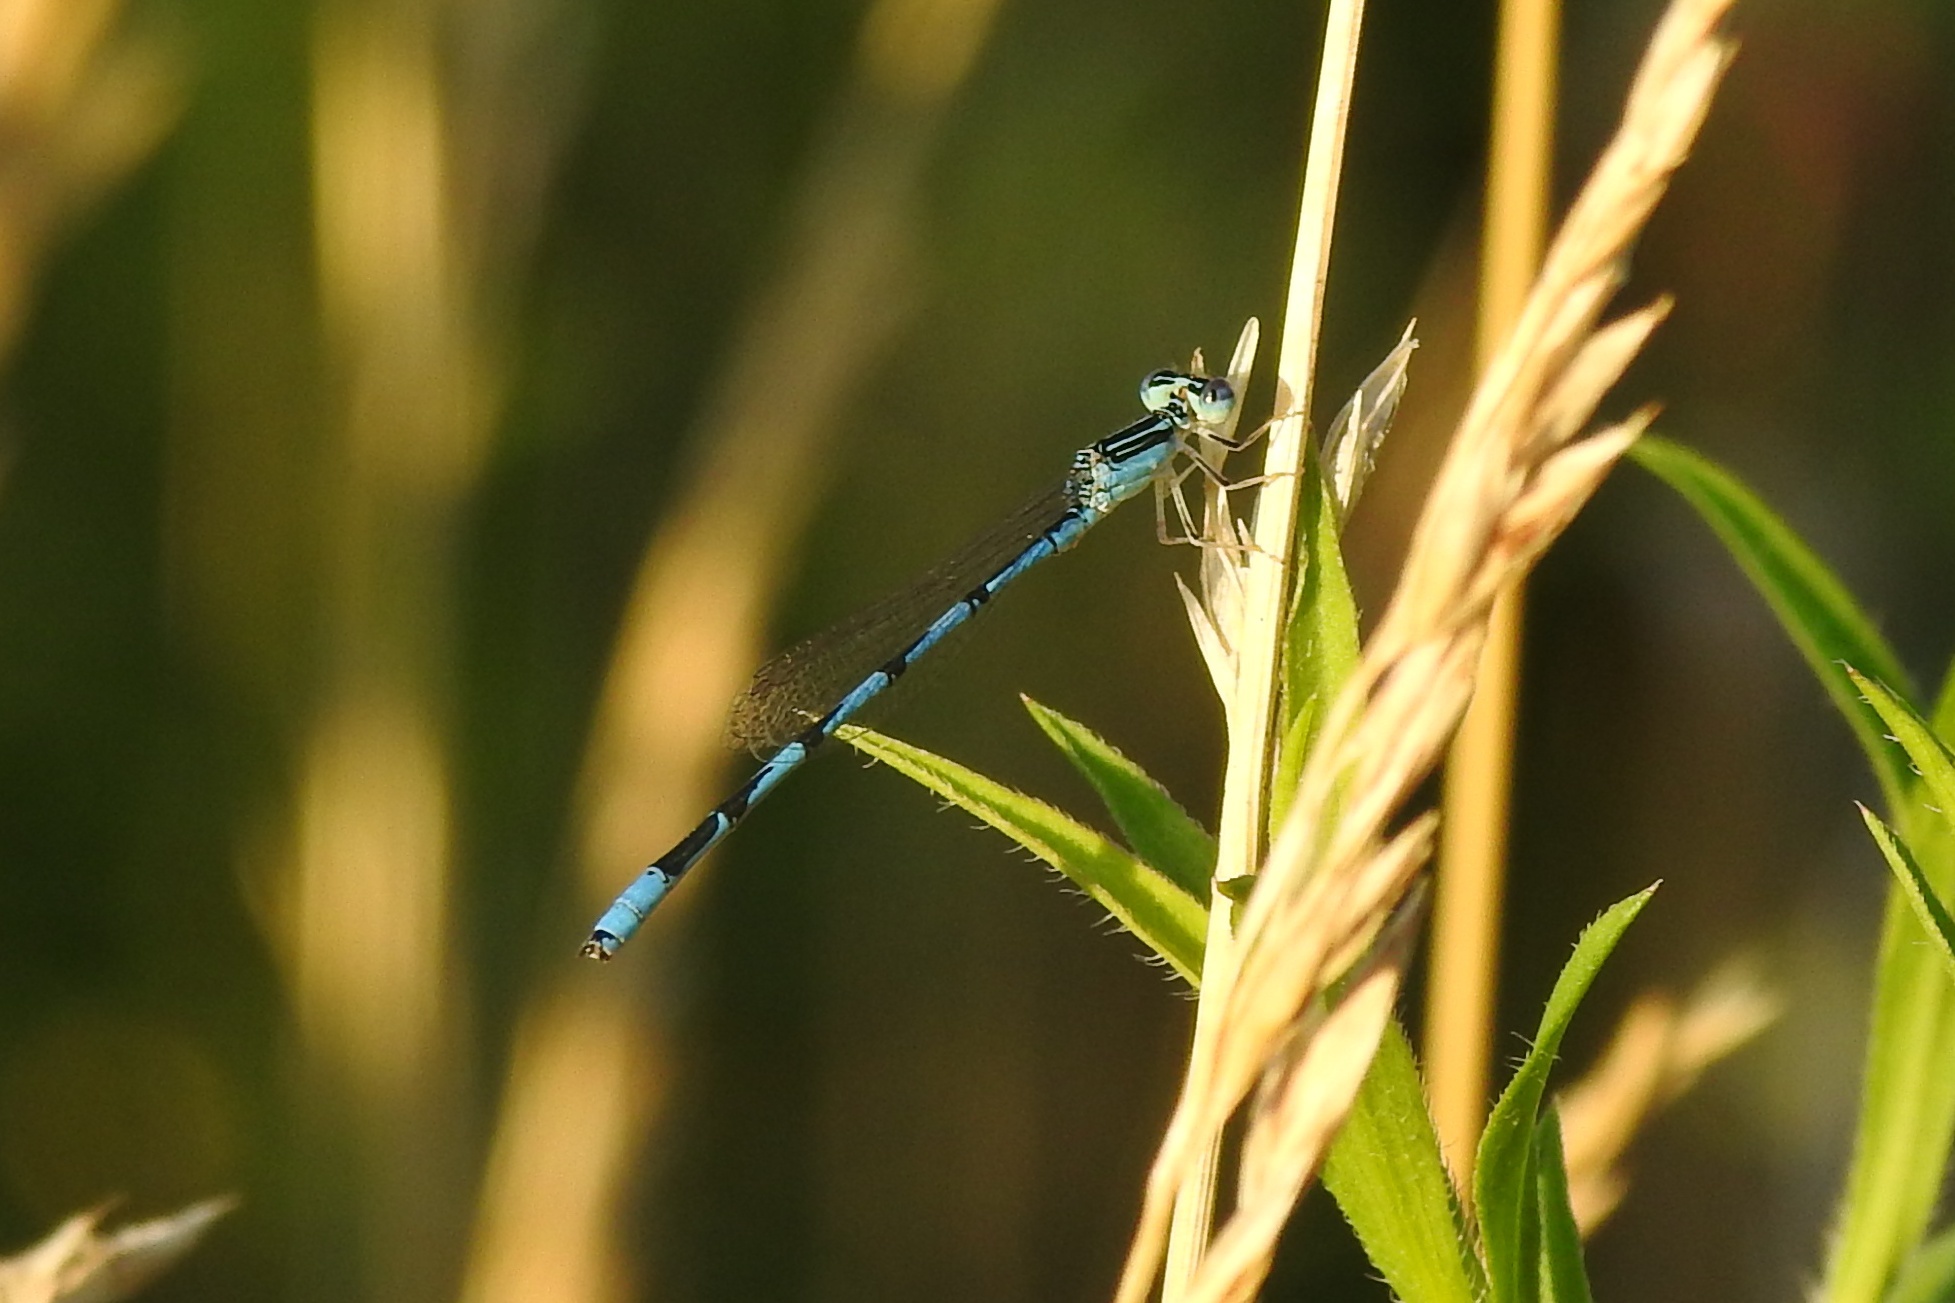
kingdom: Animalia
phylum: Arthropoda
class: Insecta
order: Odonata
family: Coenagrionidae
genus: Enallagma
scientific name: Enallagma basidens
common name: Double-striped bluet
